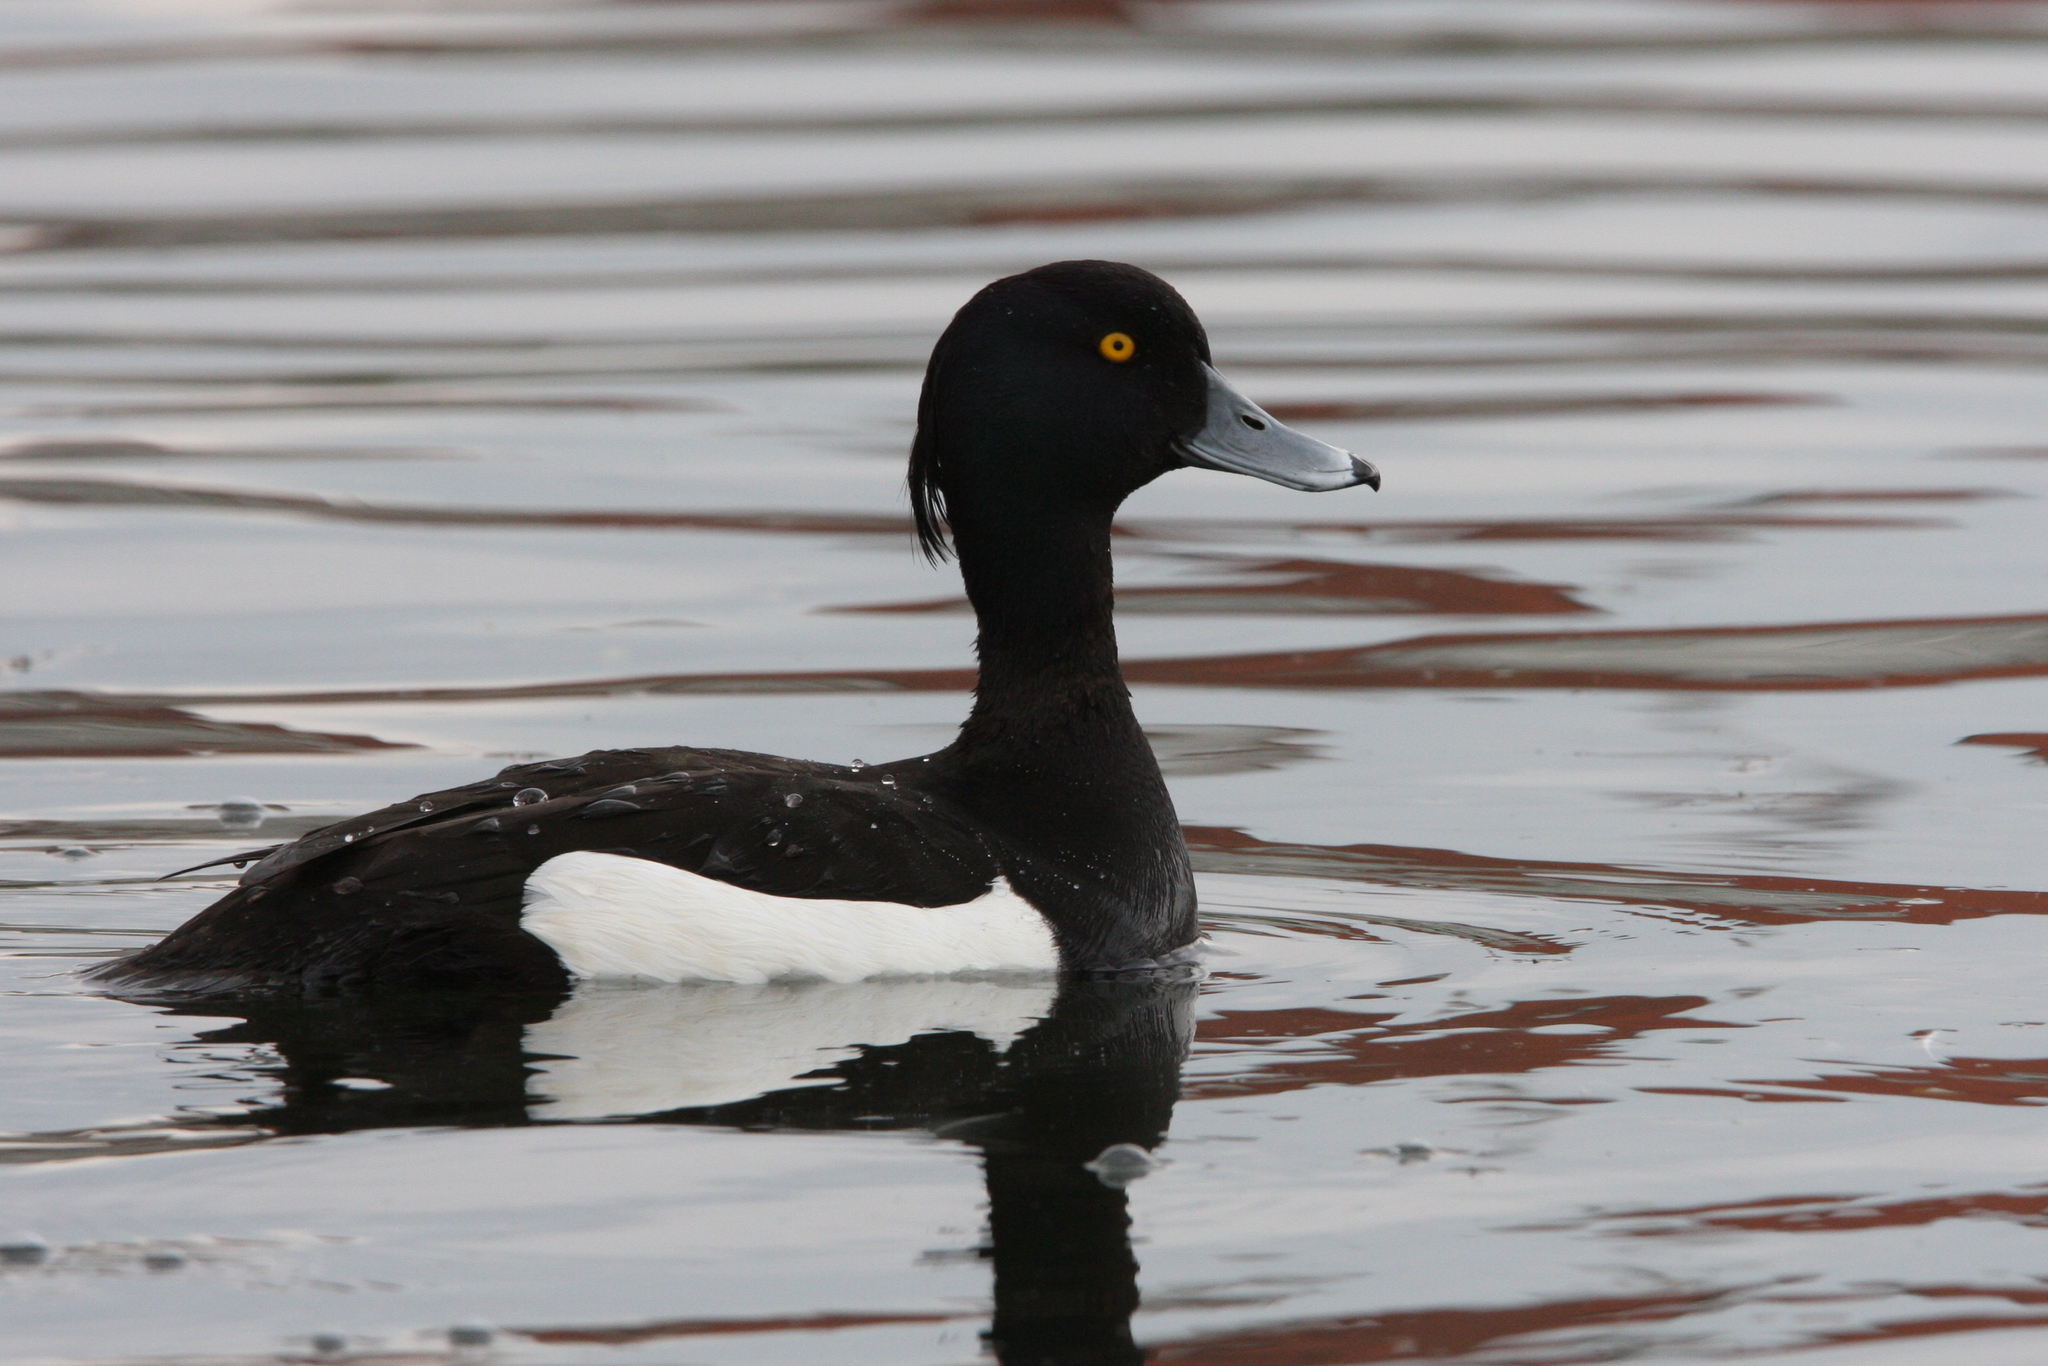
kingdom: Animalia
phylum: Chordata
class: Aves
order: Anseriformes
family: Anatidae
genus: Aythya
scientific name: Aythya fuligula
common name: Tufted duck
